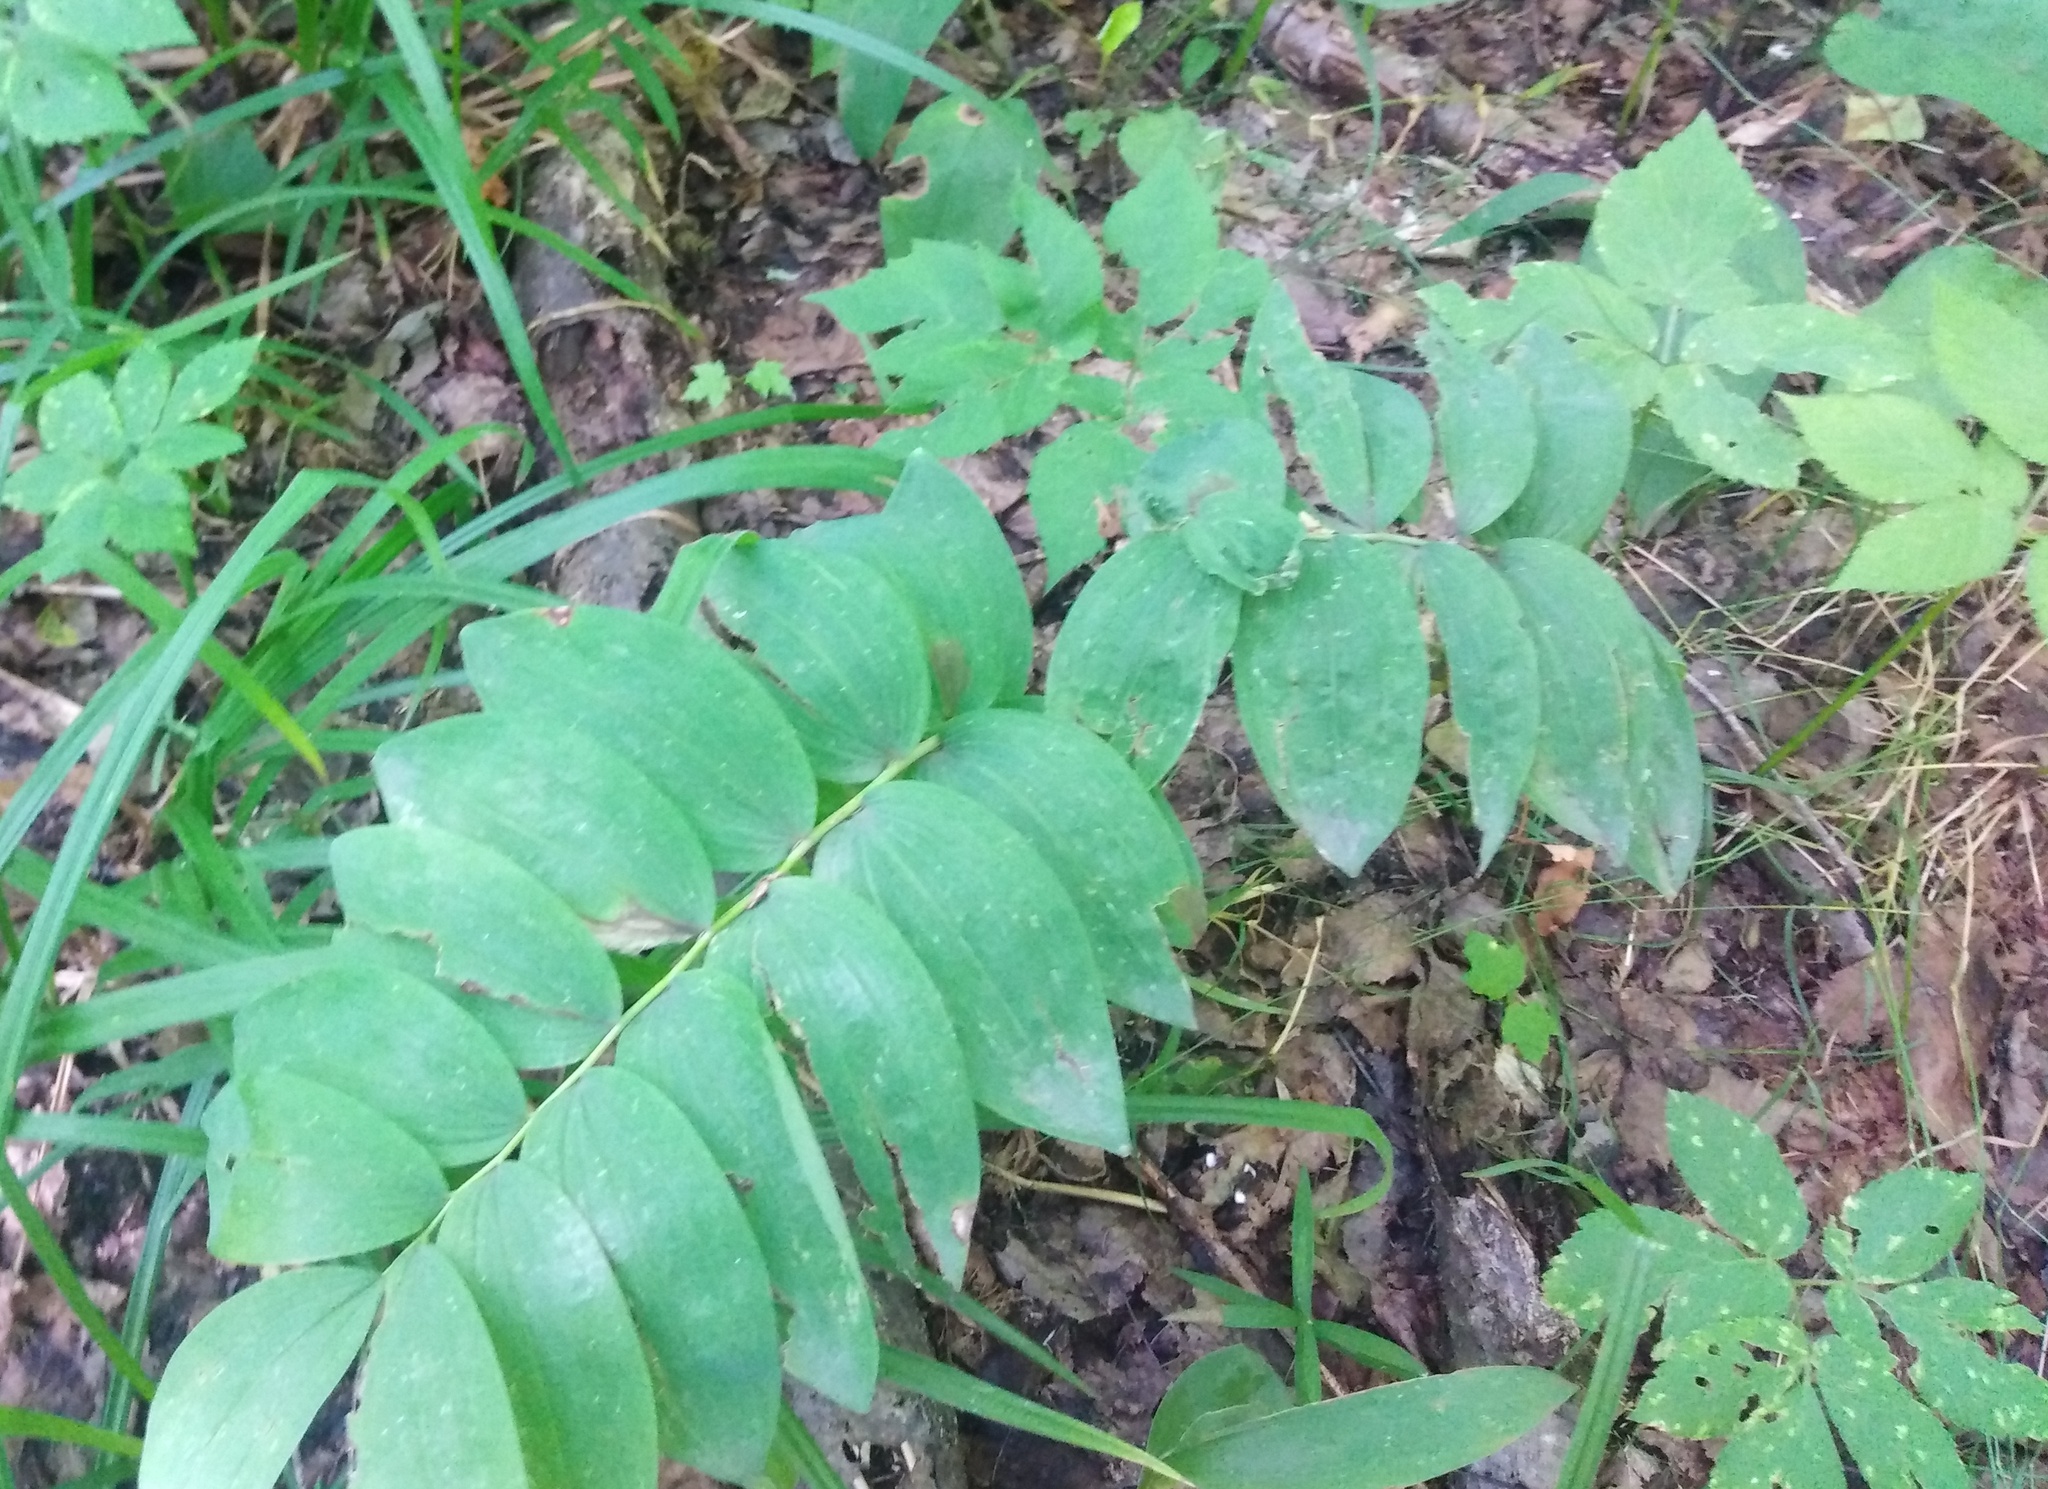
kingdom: Plantae
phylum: Tracheophyta
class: Liliopsida
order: Asparagales
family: Asparagaceae
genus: Polygonatum
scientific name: Polygonatum multiflorum
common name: Solomon's-seal
